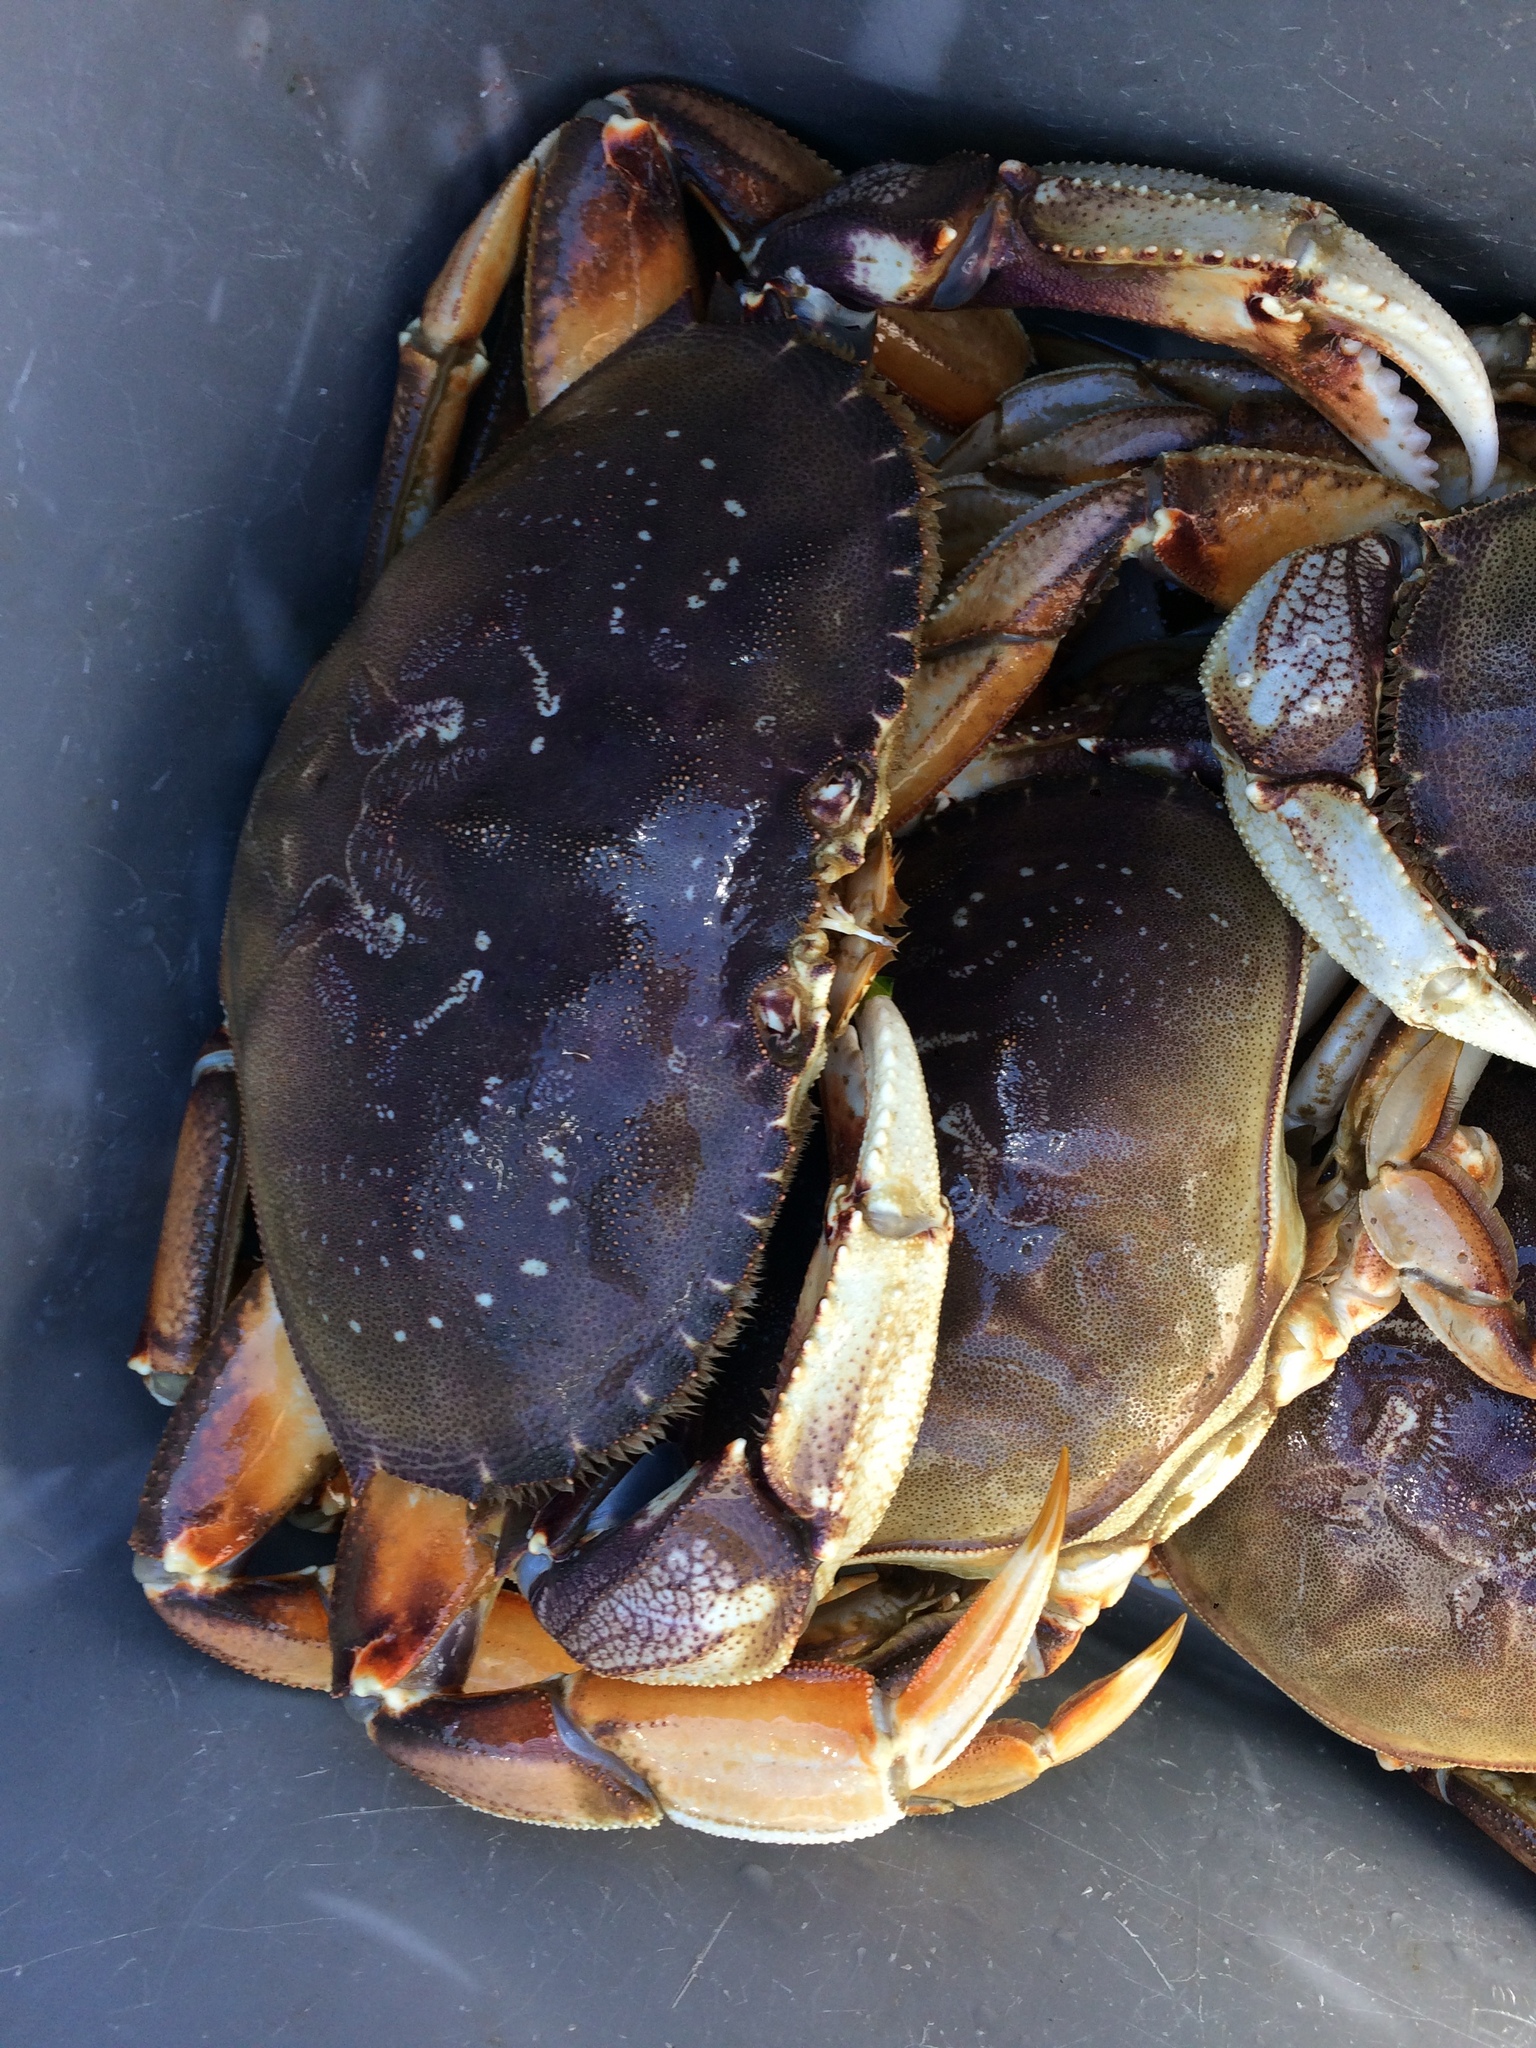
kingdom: Animalia
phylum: Arthropoda
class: Malacostraca
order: Decapoda
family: Cancridae
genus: Metacarcinus
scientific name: Metacarcinus magister
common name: Californian crab
